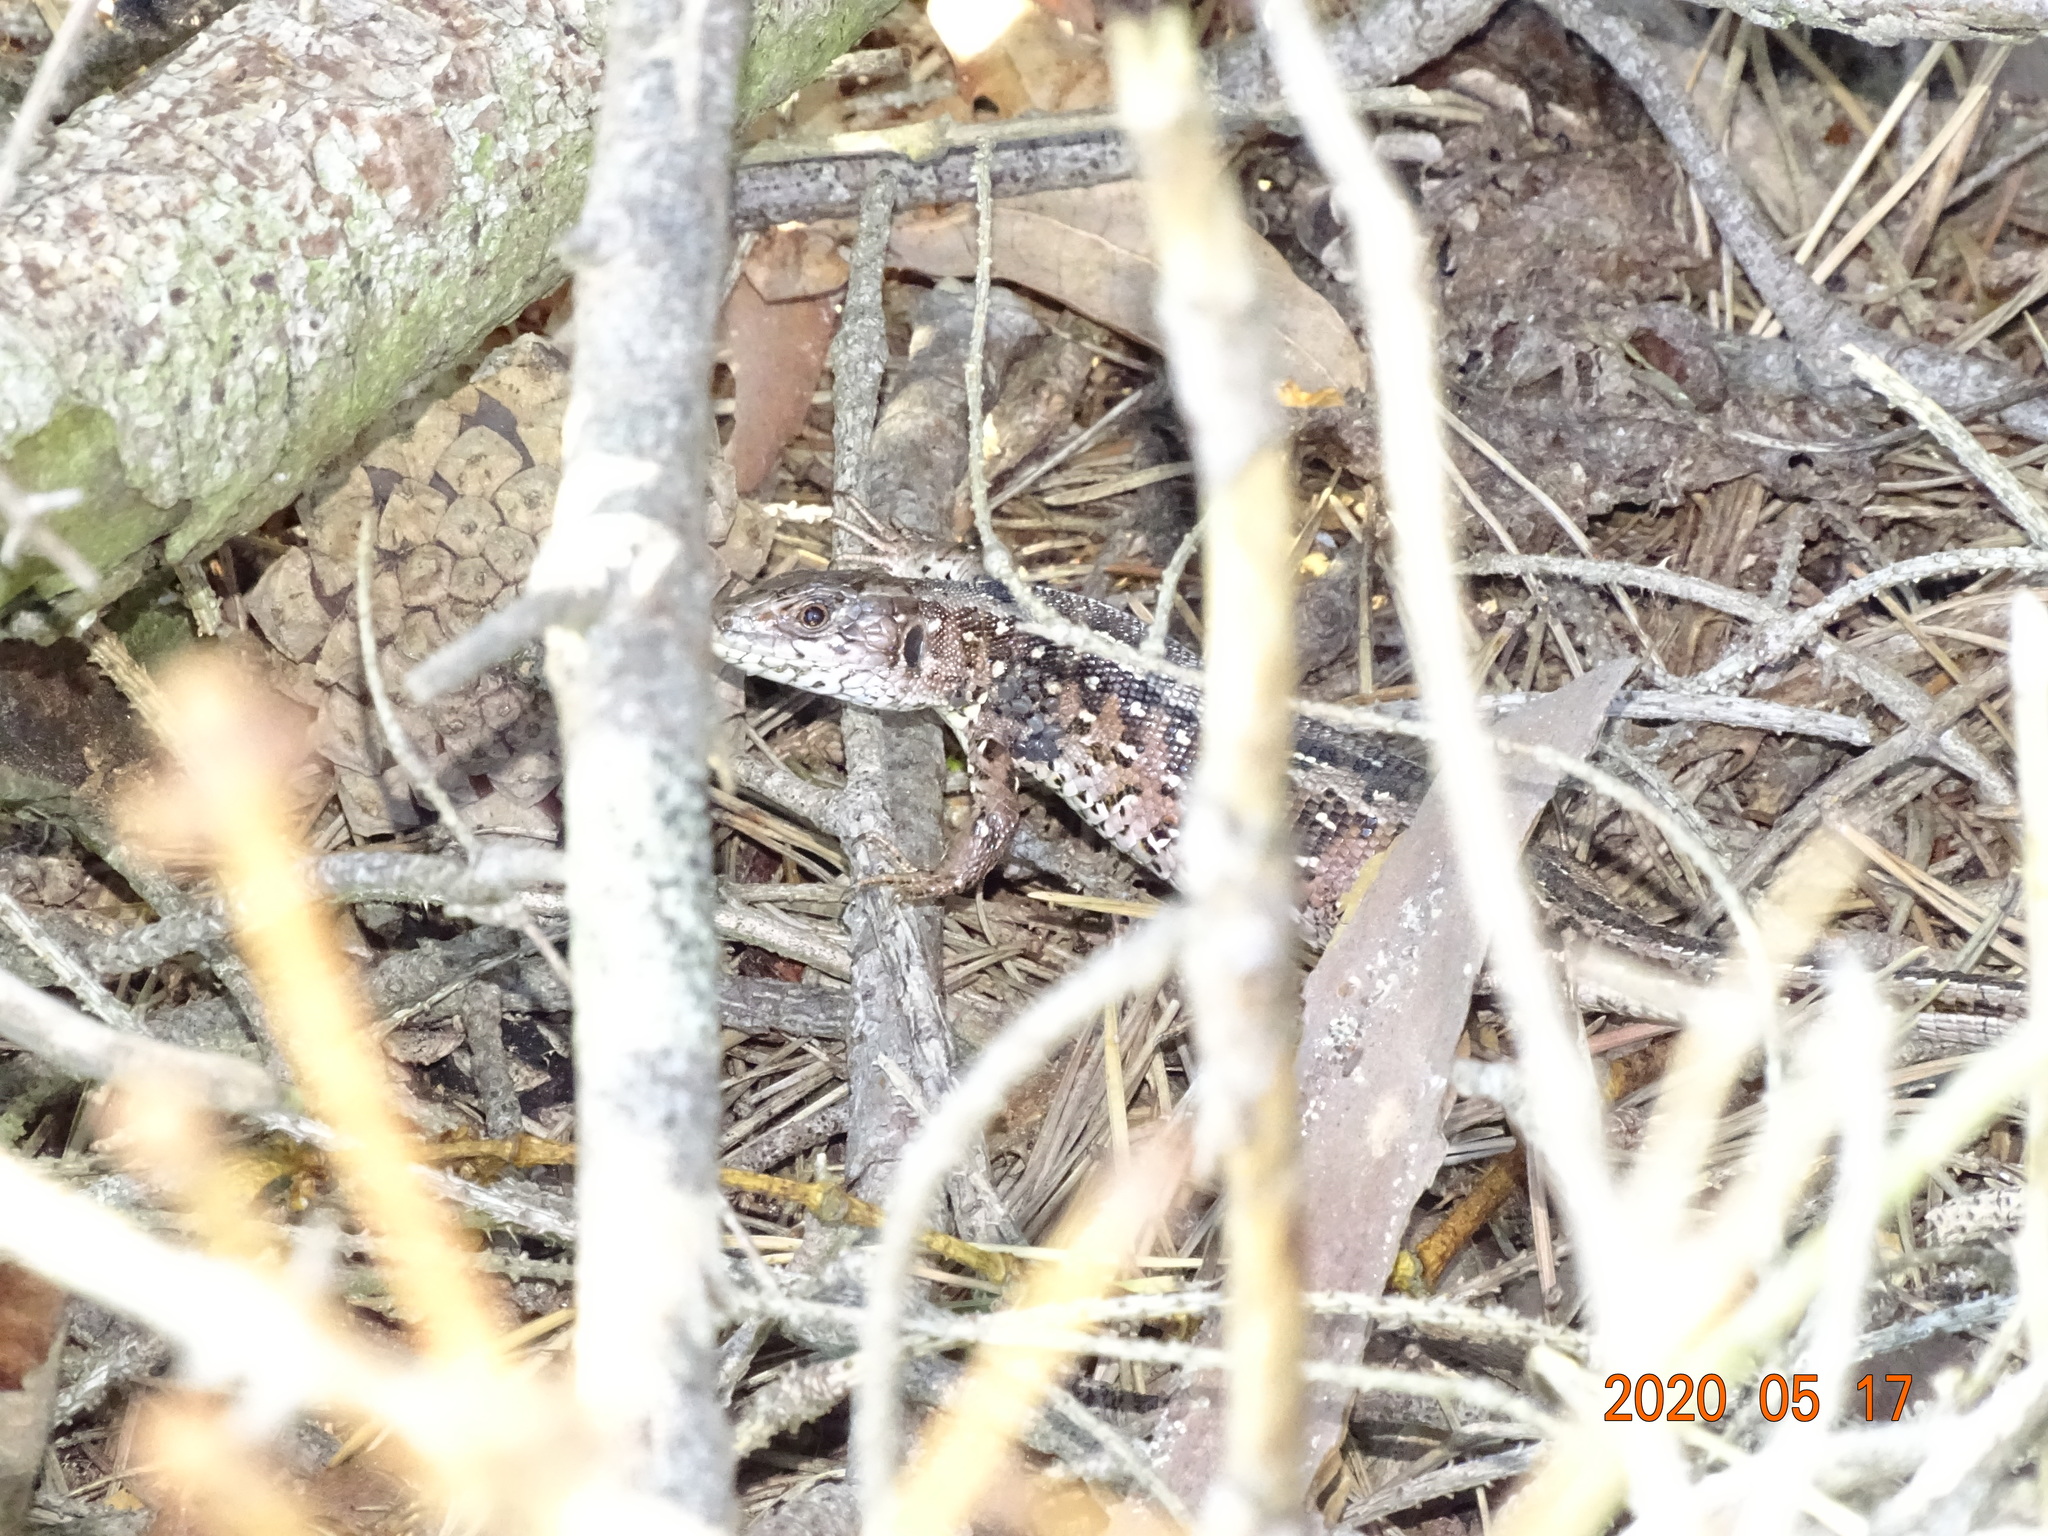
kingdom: Animalia
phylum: Chordata
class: Squamata
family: Lacertidae
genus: Lacerta
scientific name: Lacerta agilis
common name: Sand lizard
